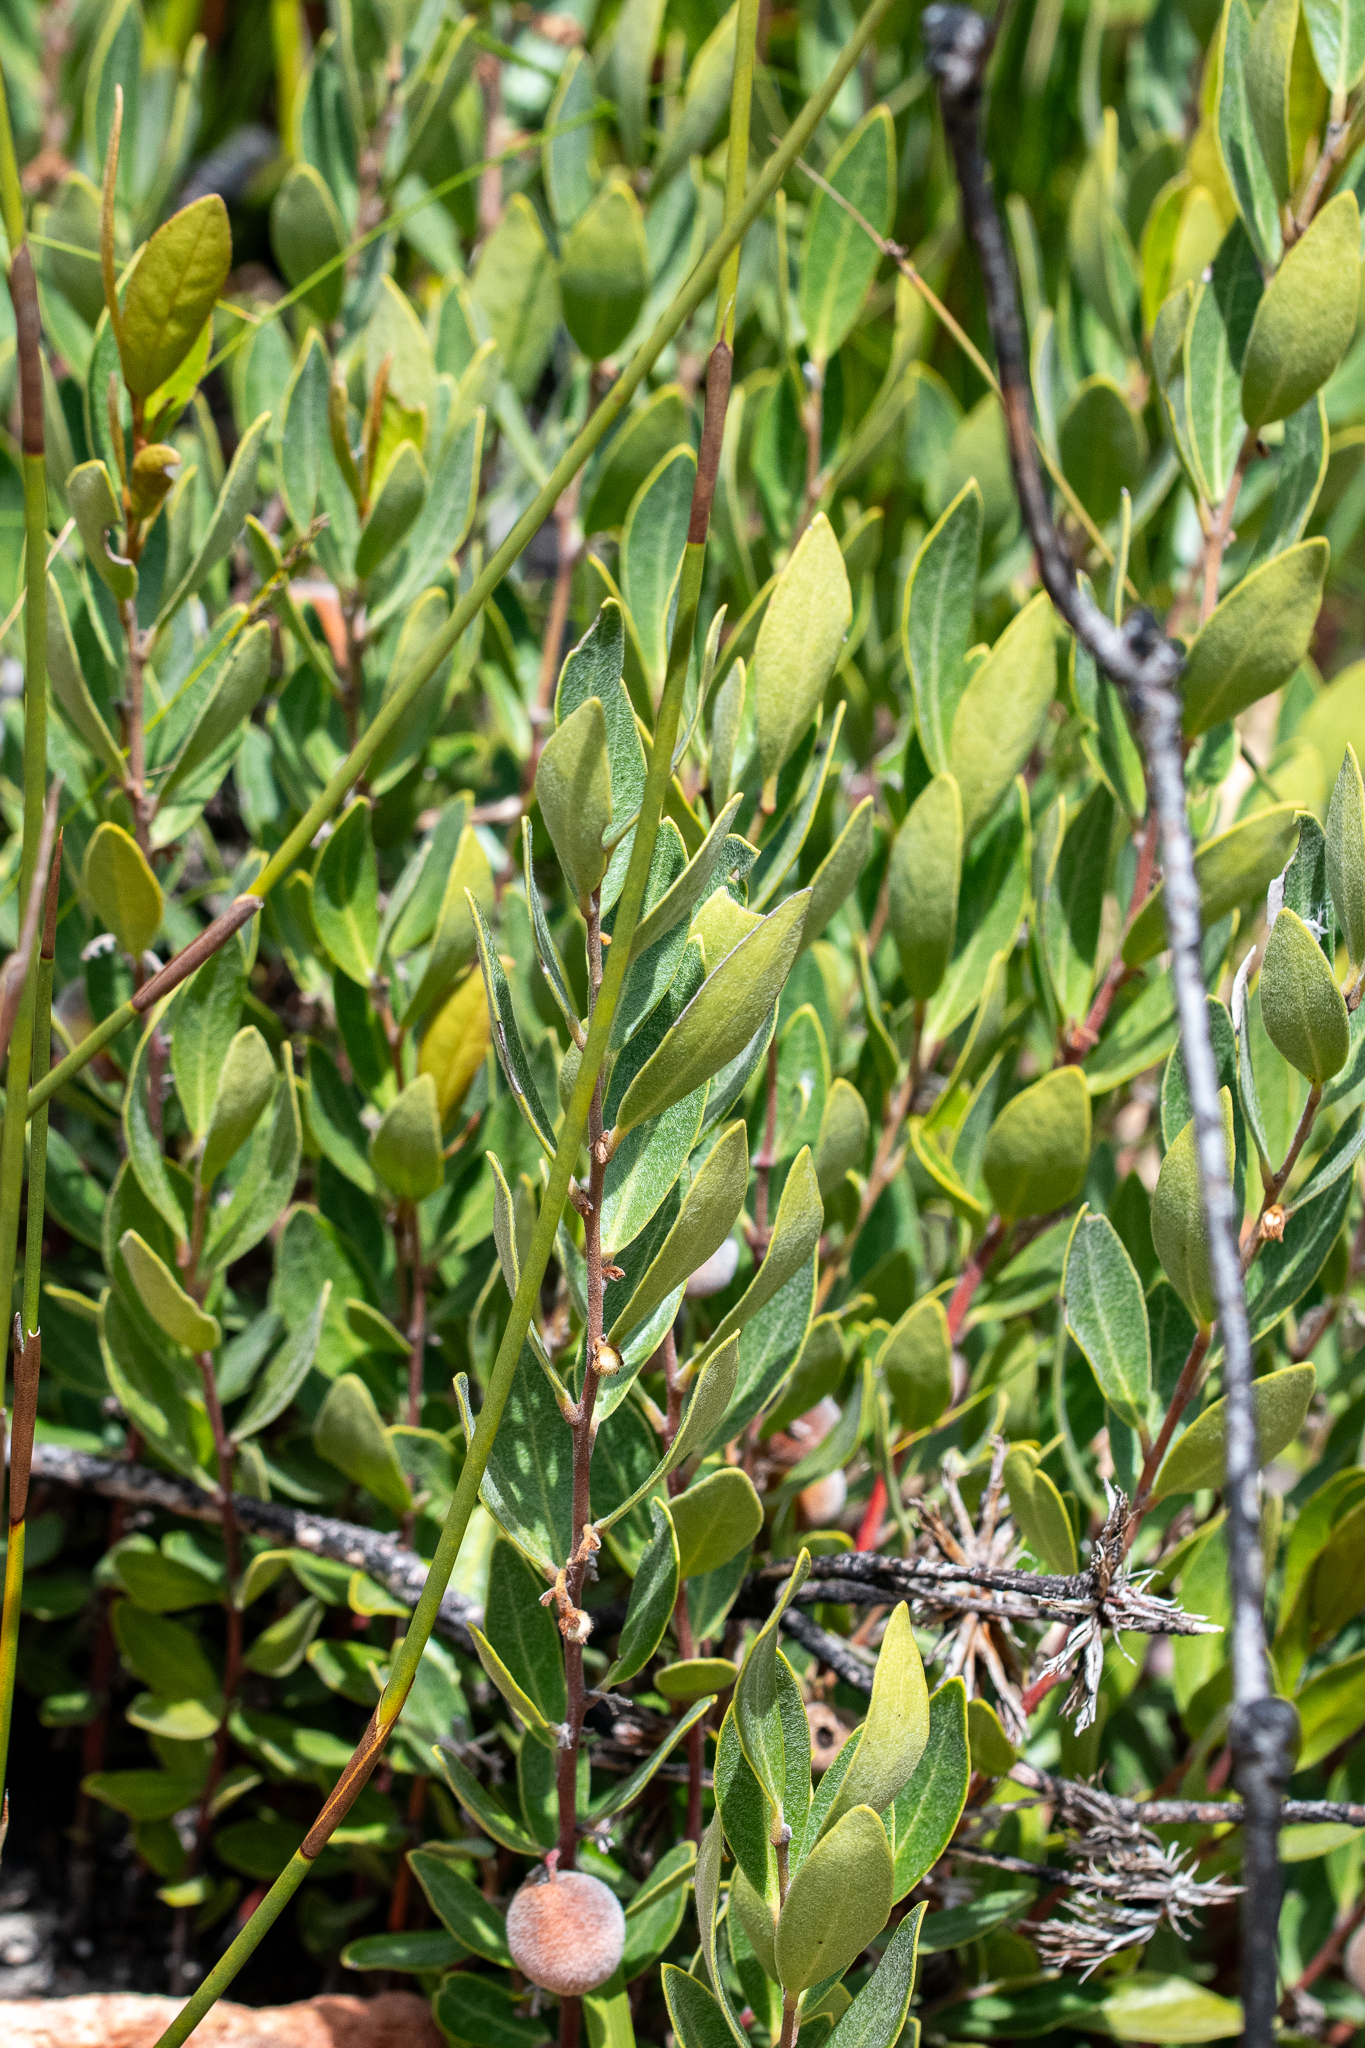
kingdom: Plantae
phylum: Tracheophyta
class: Magnoliopsida
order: Ericales
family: Ebenaceae
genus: Euclea
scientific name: Euclea polyandra
